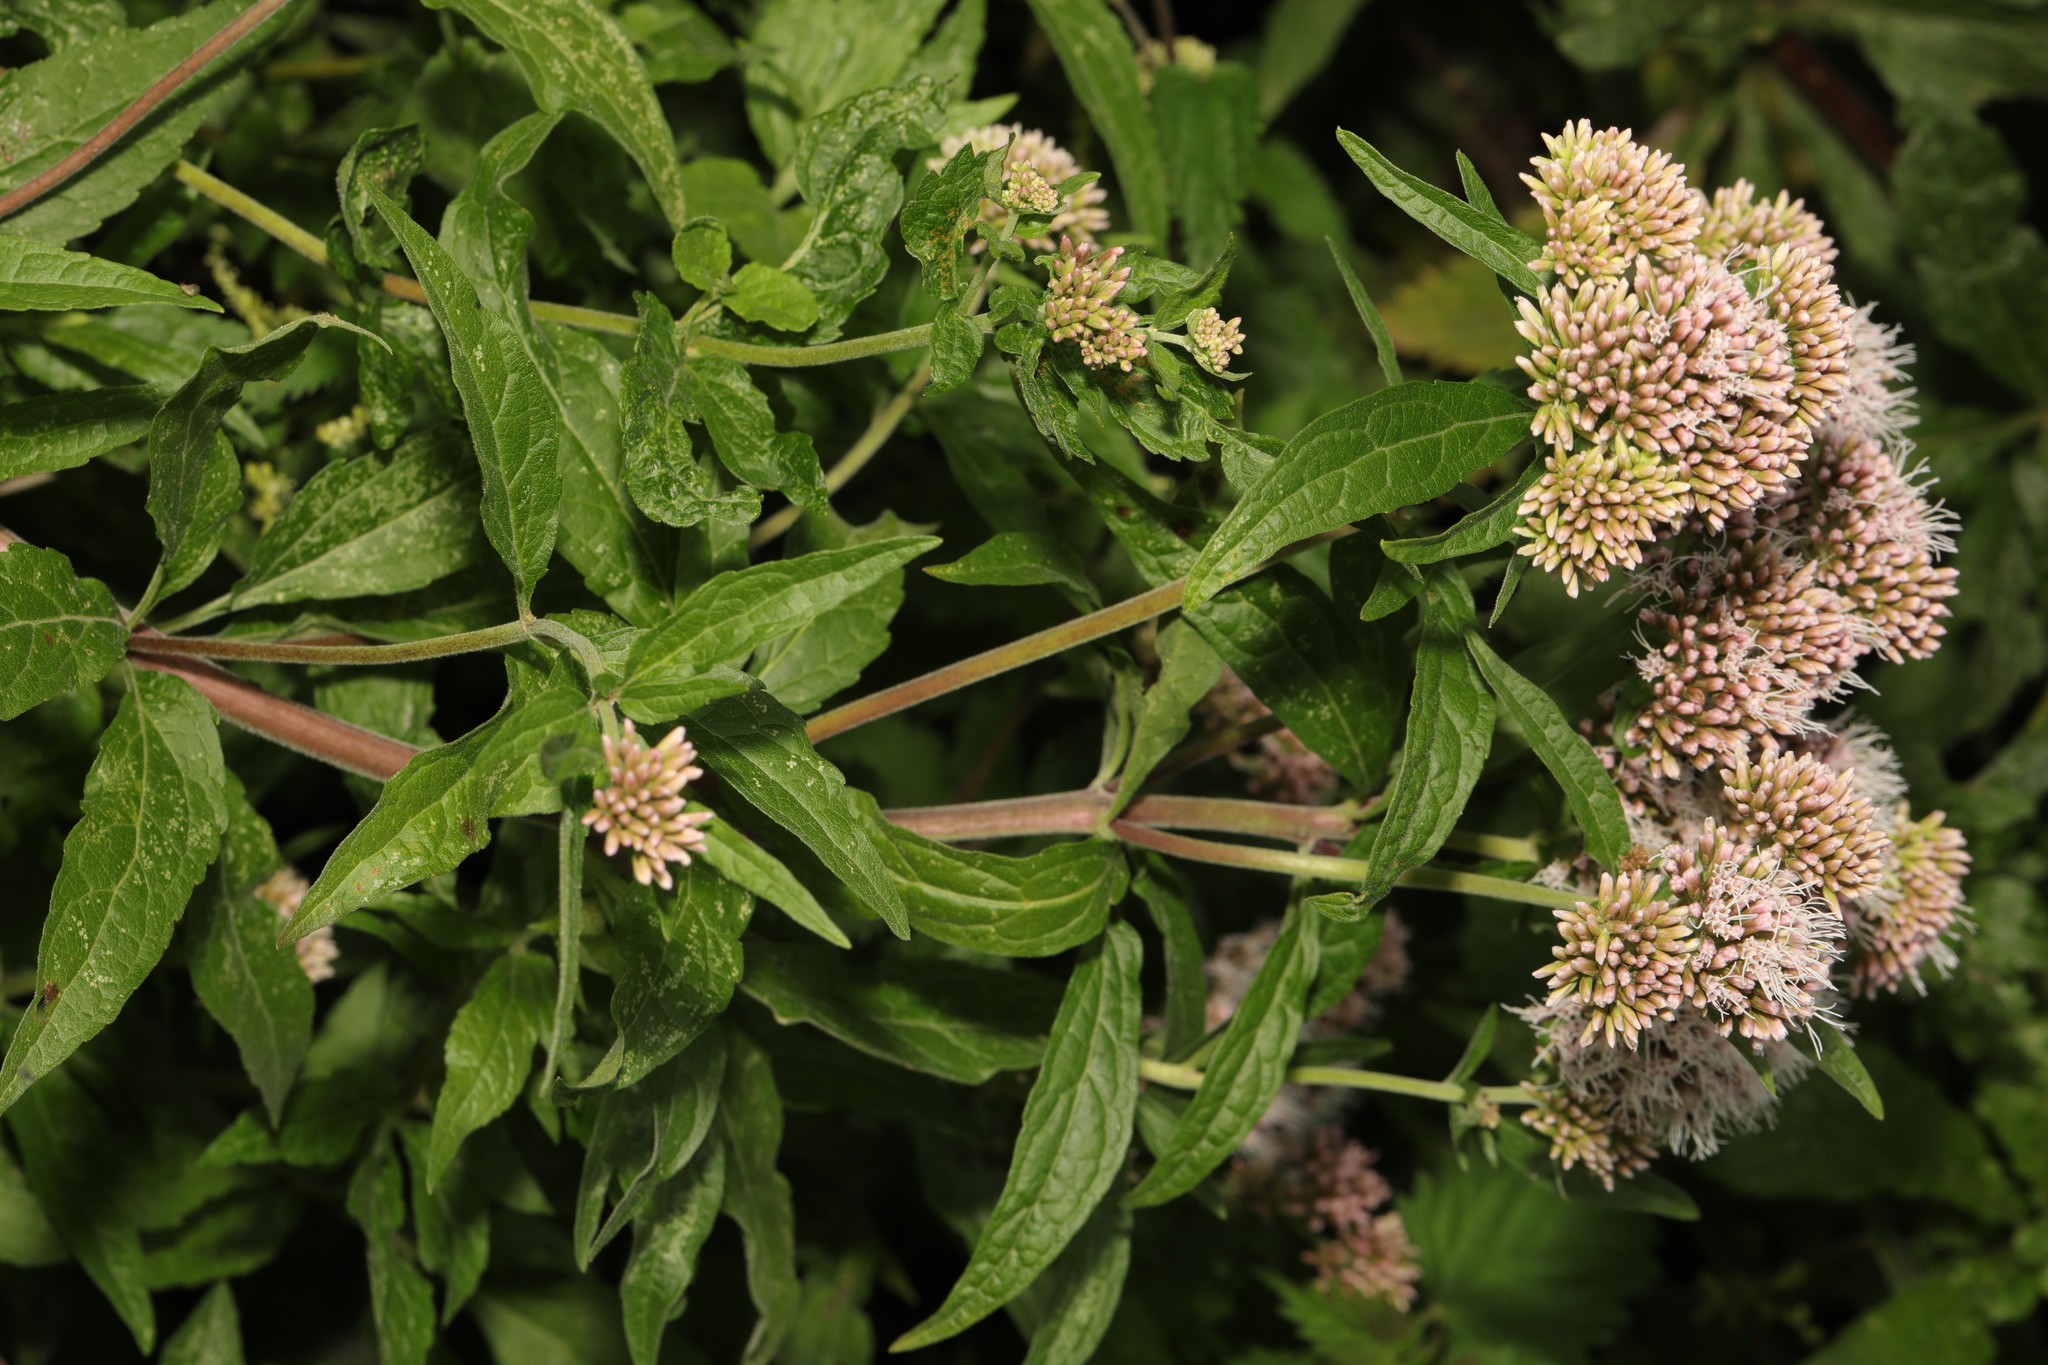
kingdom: Plantae
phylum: Tracheophyta
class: Magnoliopsida
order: Asterales
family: Asteraceae
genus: Eupatorium
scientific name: Eupatorium cannabinum
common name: Hemp-agrimony
